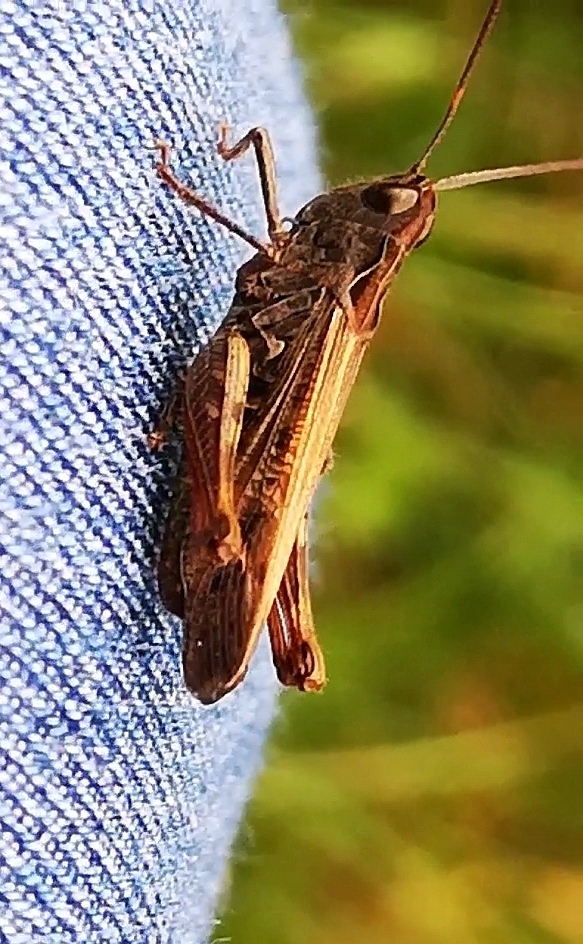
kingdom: Animalia
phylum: Arthropoda
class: Insecta
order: Orthoptera
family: Acrididae
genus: Chorthippus
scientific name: Chorthippus biguttulus
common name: Bow-winged grasshopper
